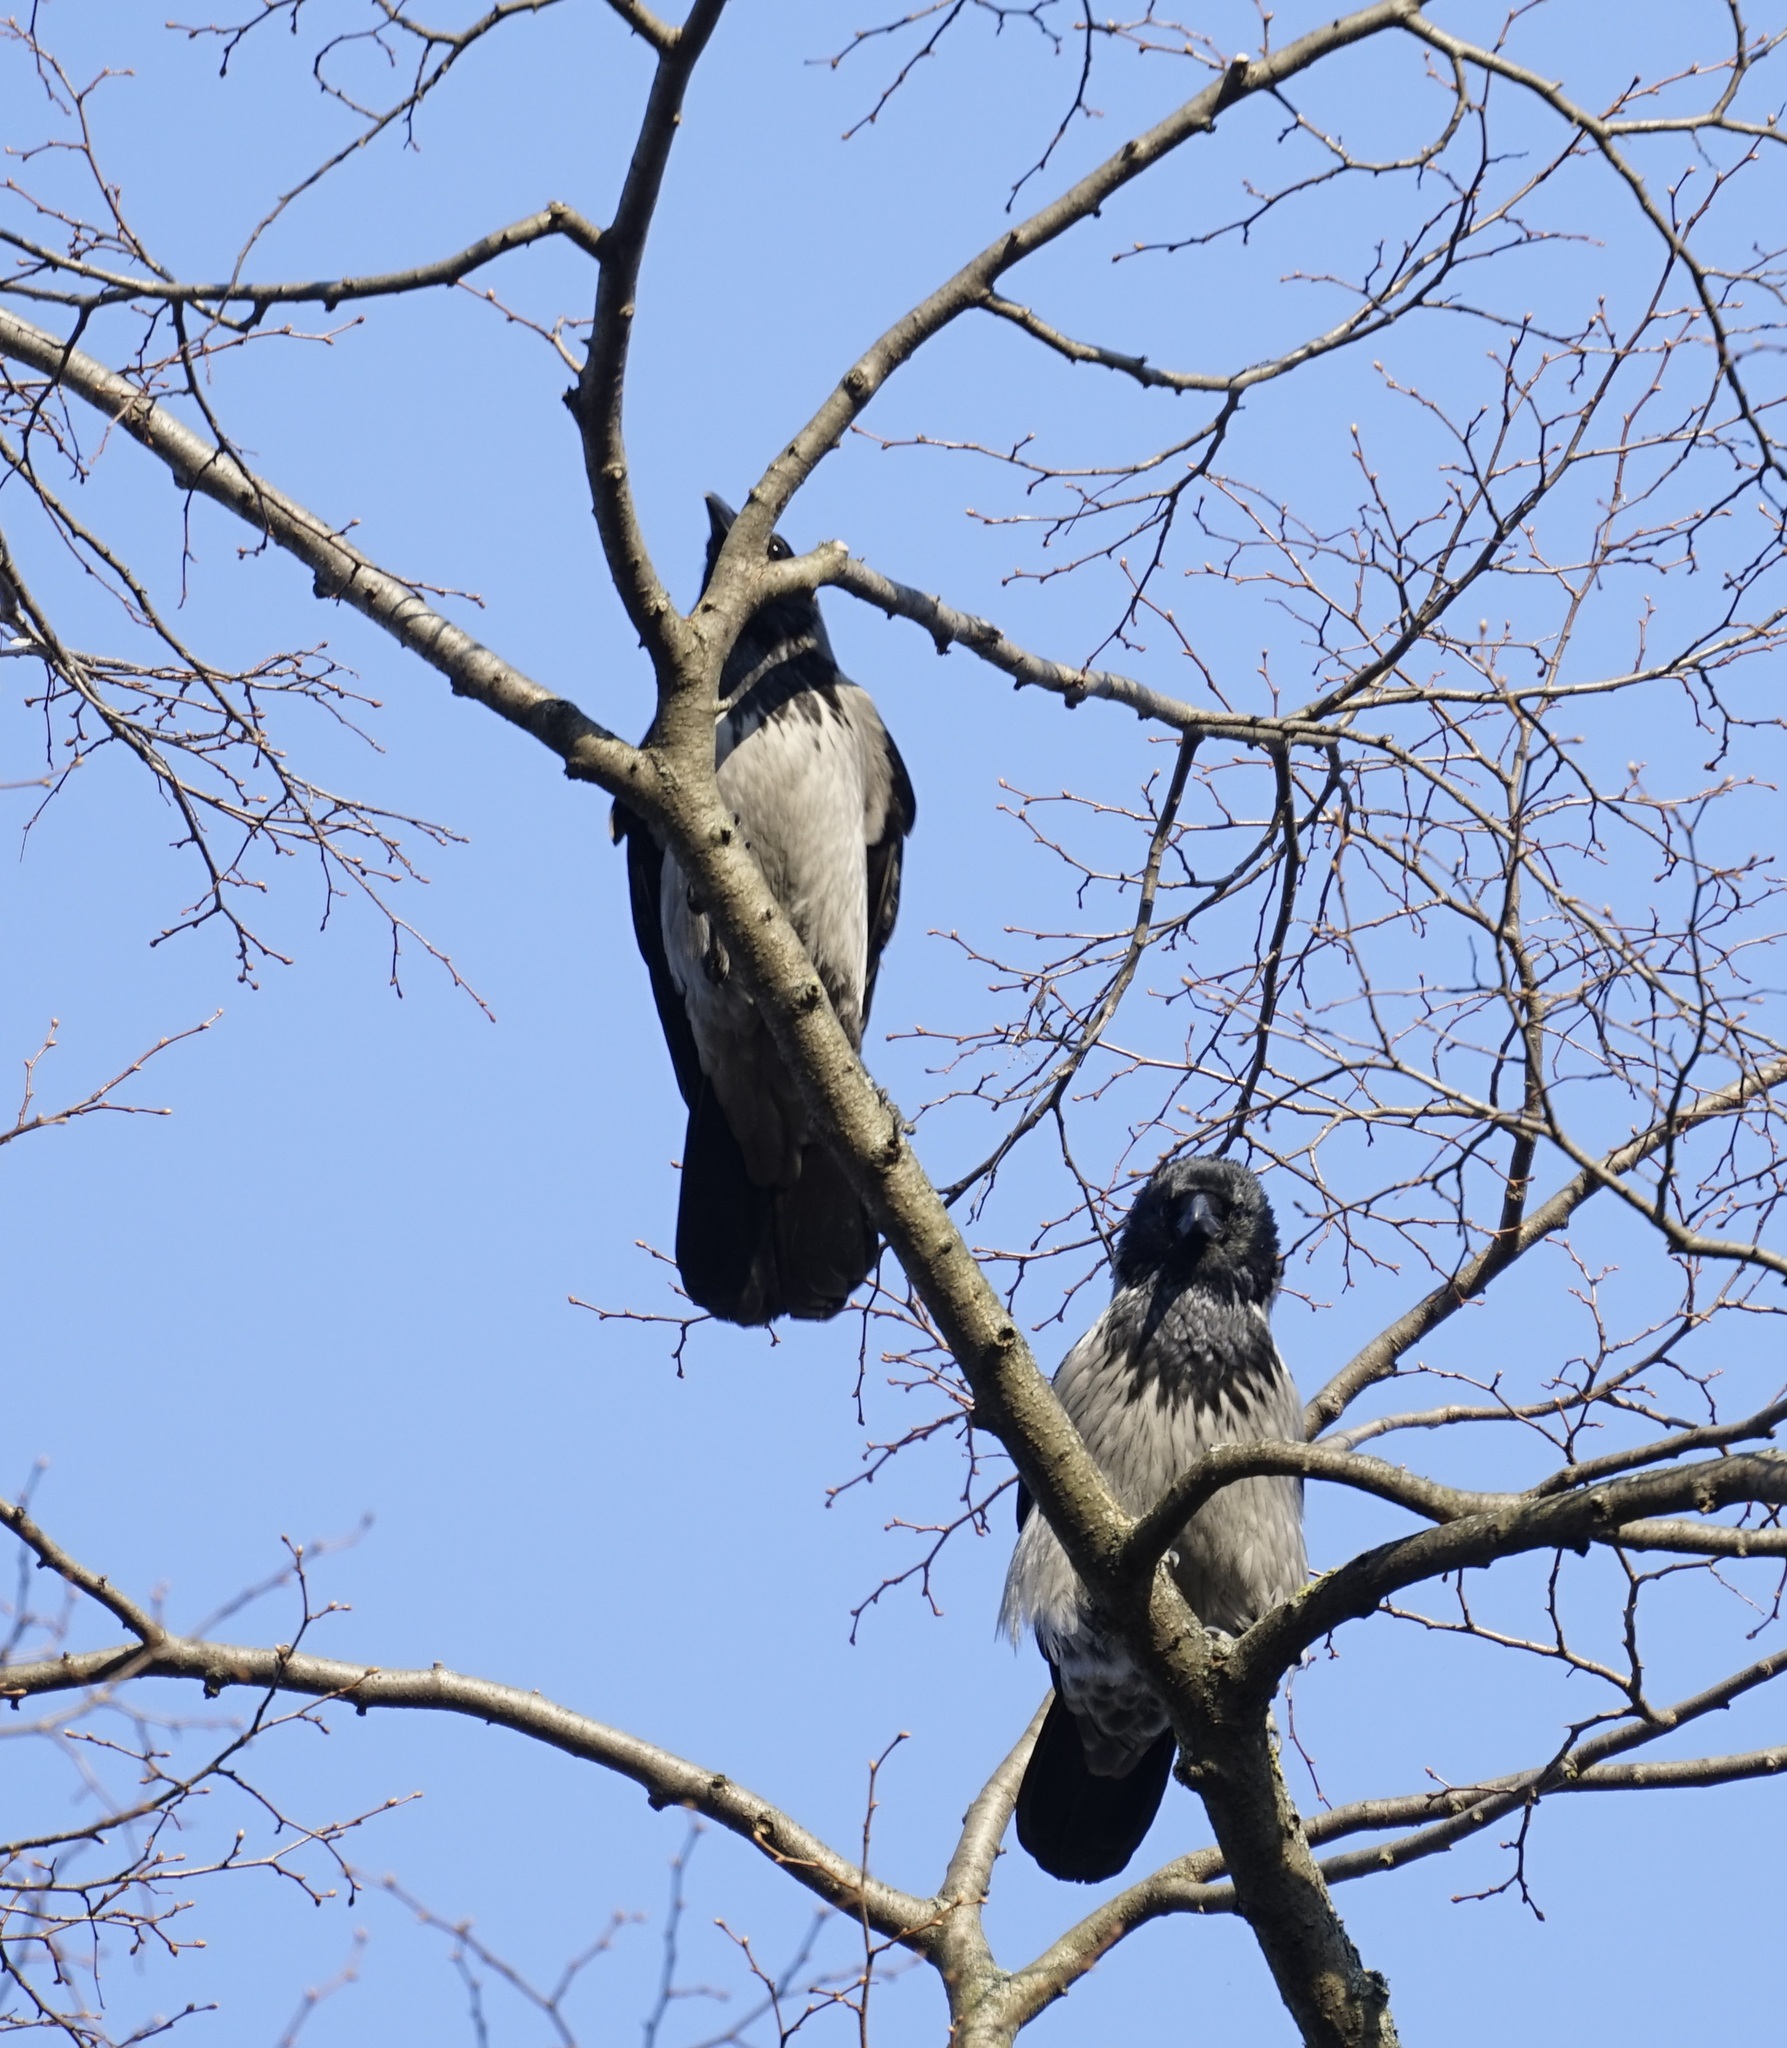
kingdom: Animalia
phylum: Chordata
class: Aves
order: Passeriformes
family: Corvidae
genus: Corvus
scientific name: Corvus cornix
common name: Hooded crow
